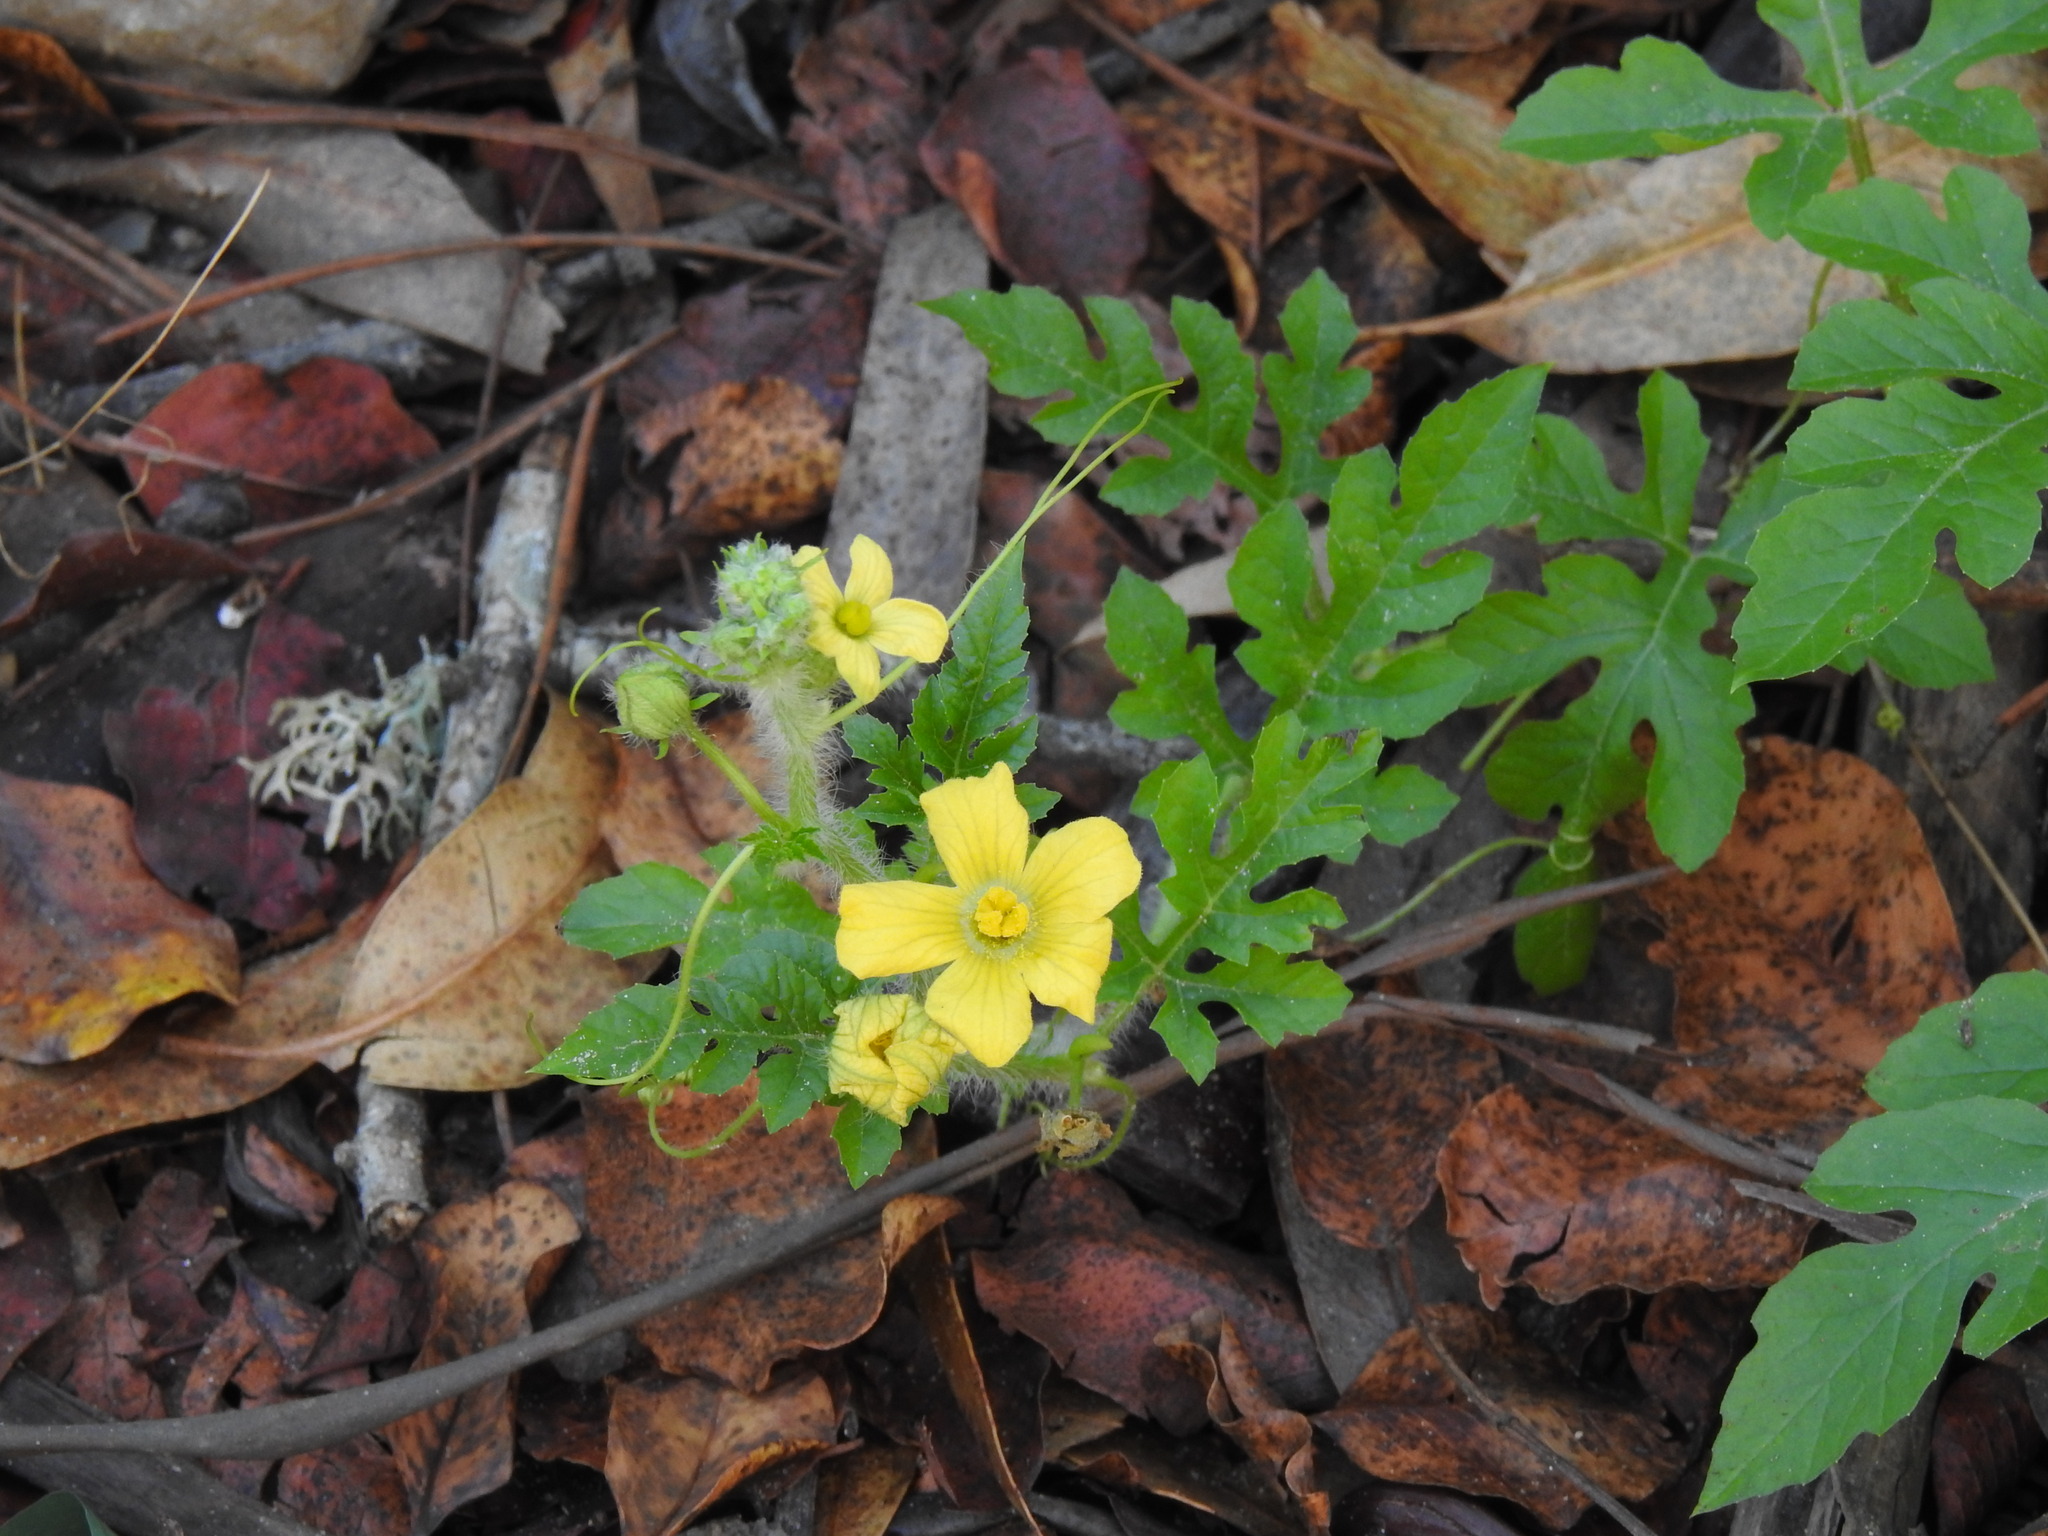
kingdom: Plantae
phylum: Tracheophyta
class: Magnoliopsida
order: Cucurbitales
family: Cucurbitaceae
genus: Citrullus
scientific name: Citrullus lanatus
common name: Watermelon
